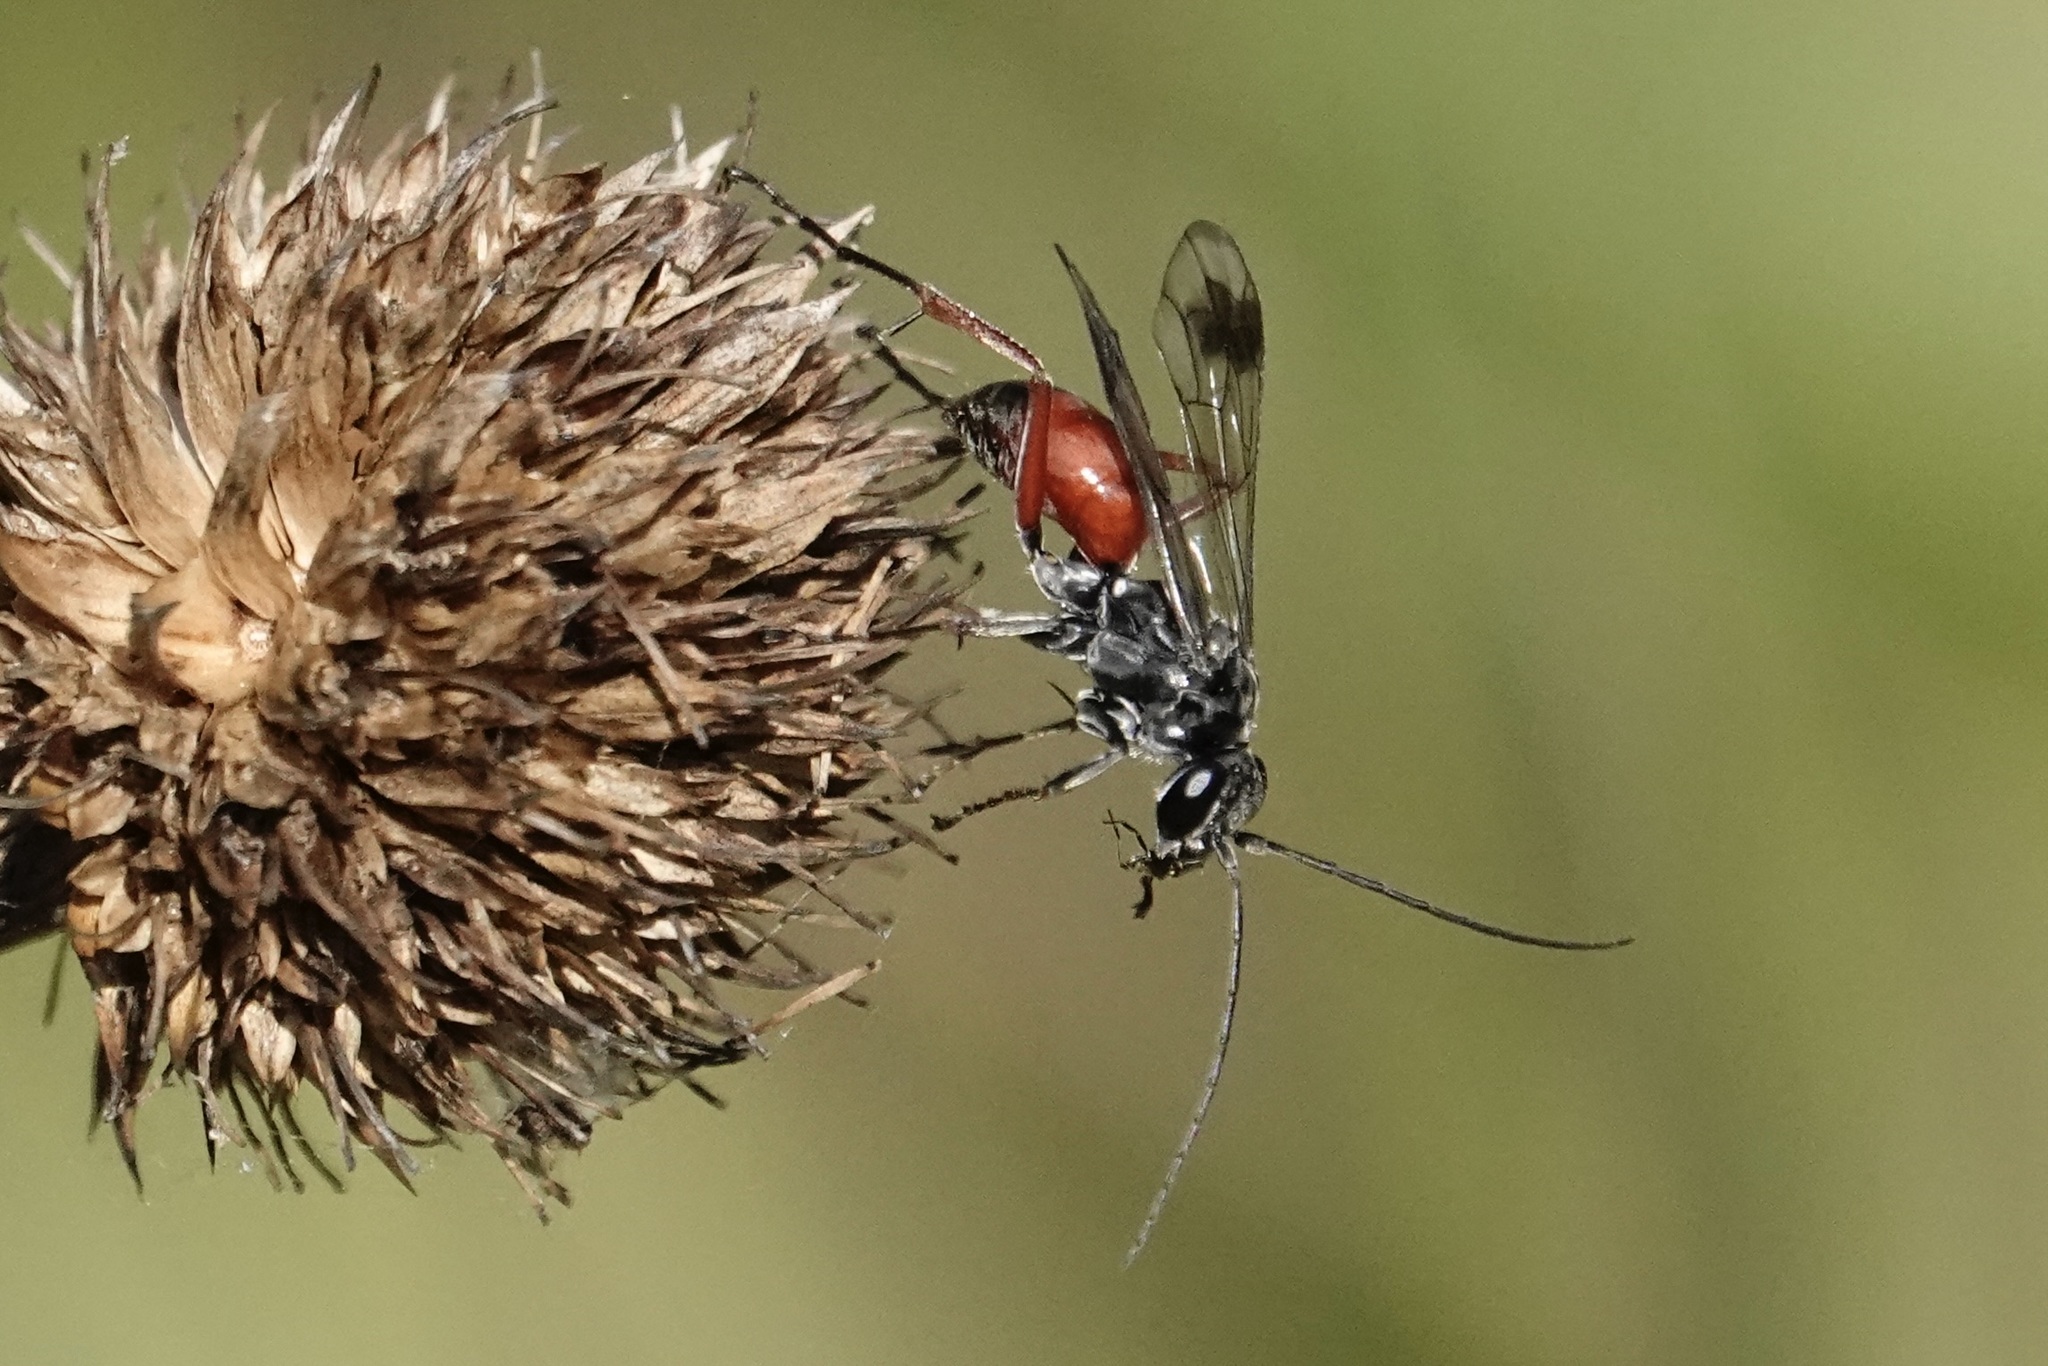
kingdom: Animalia
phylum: Arthropoda
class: Insecta
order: Hymenoptera
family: Pompilidae
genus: Caliadurgus
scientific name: Caliadurgus fasciatellus
